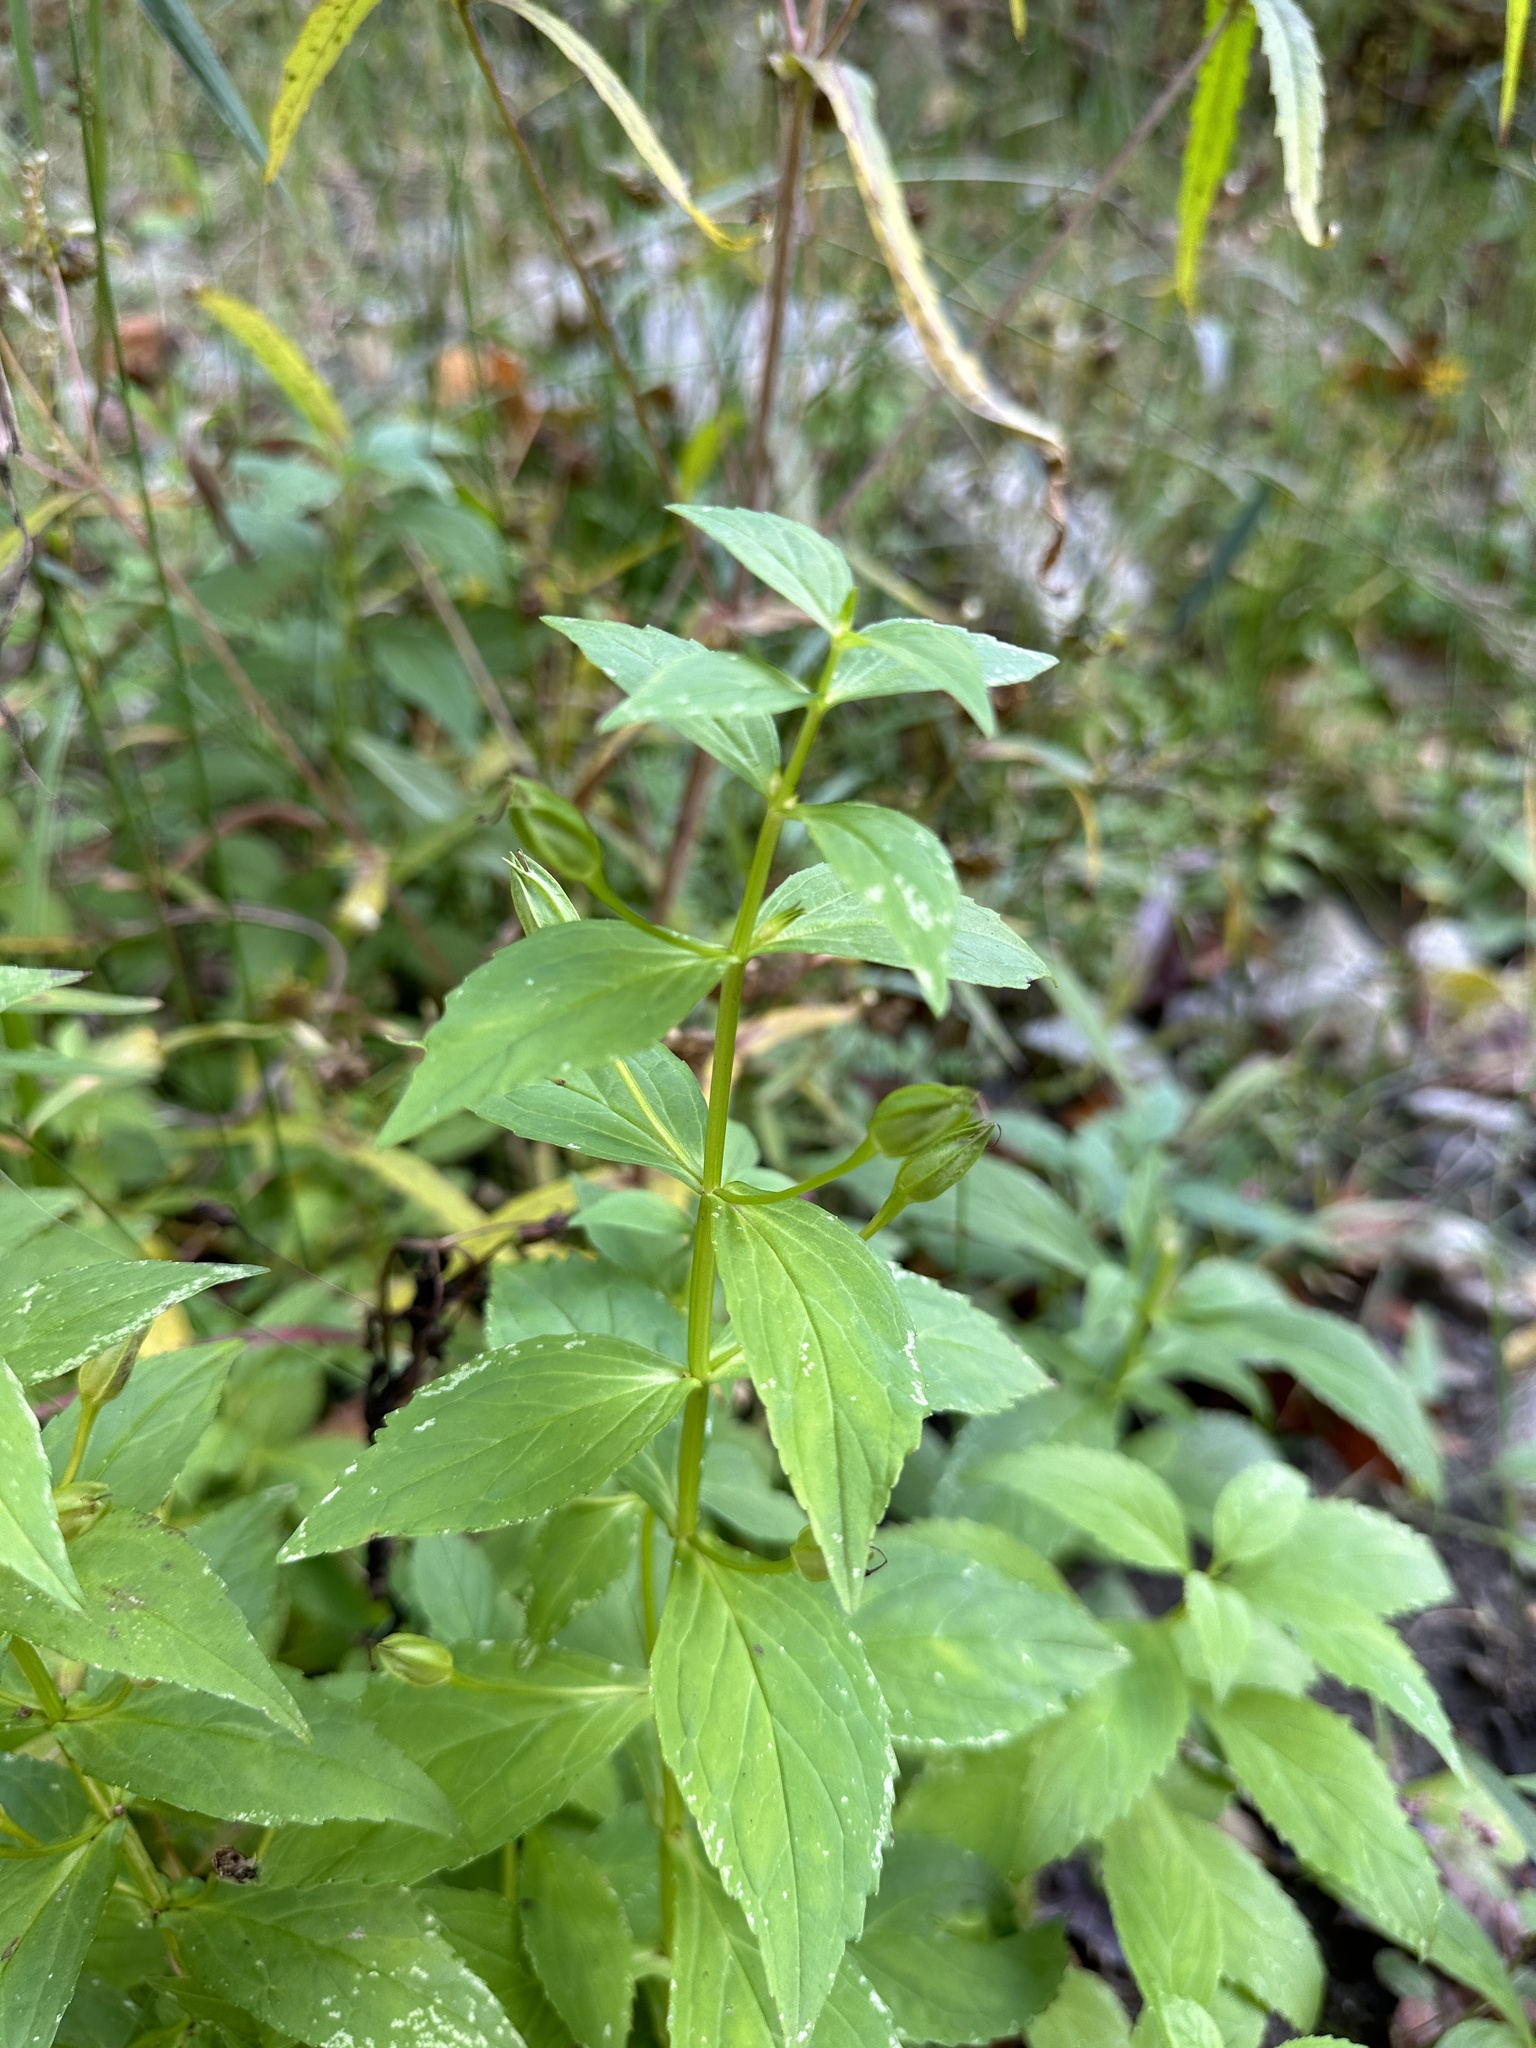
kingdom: Plantae
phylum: Tracheophyta
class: Magnoliopsida
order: Lamiales
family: Phrymaceae
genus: Mimulus
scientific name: Mimulus ringens
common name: Allegheny monkeyflower
